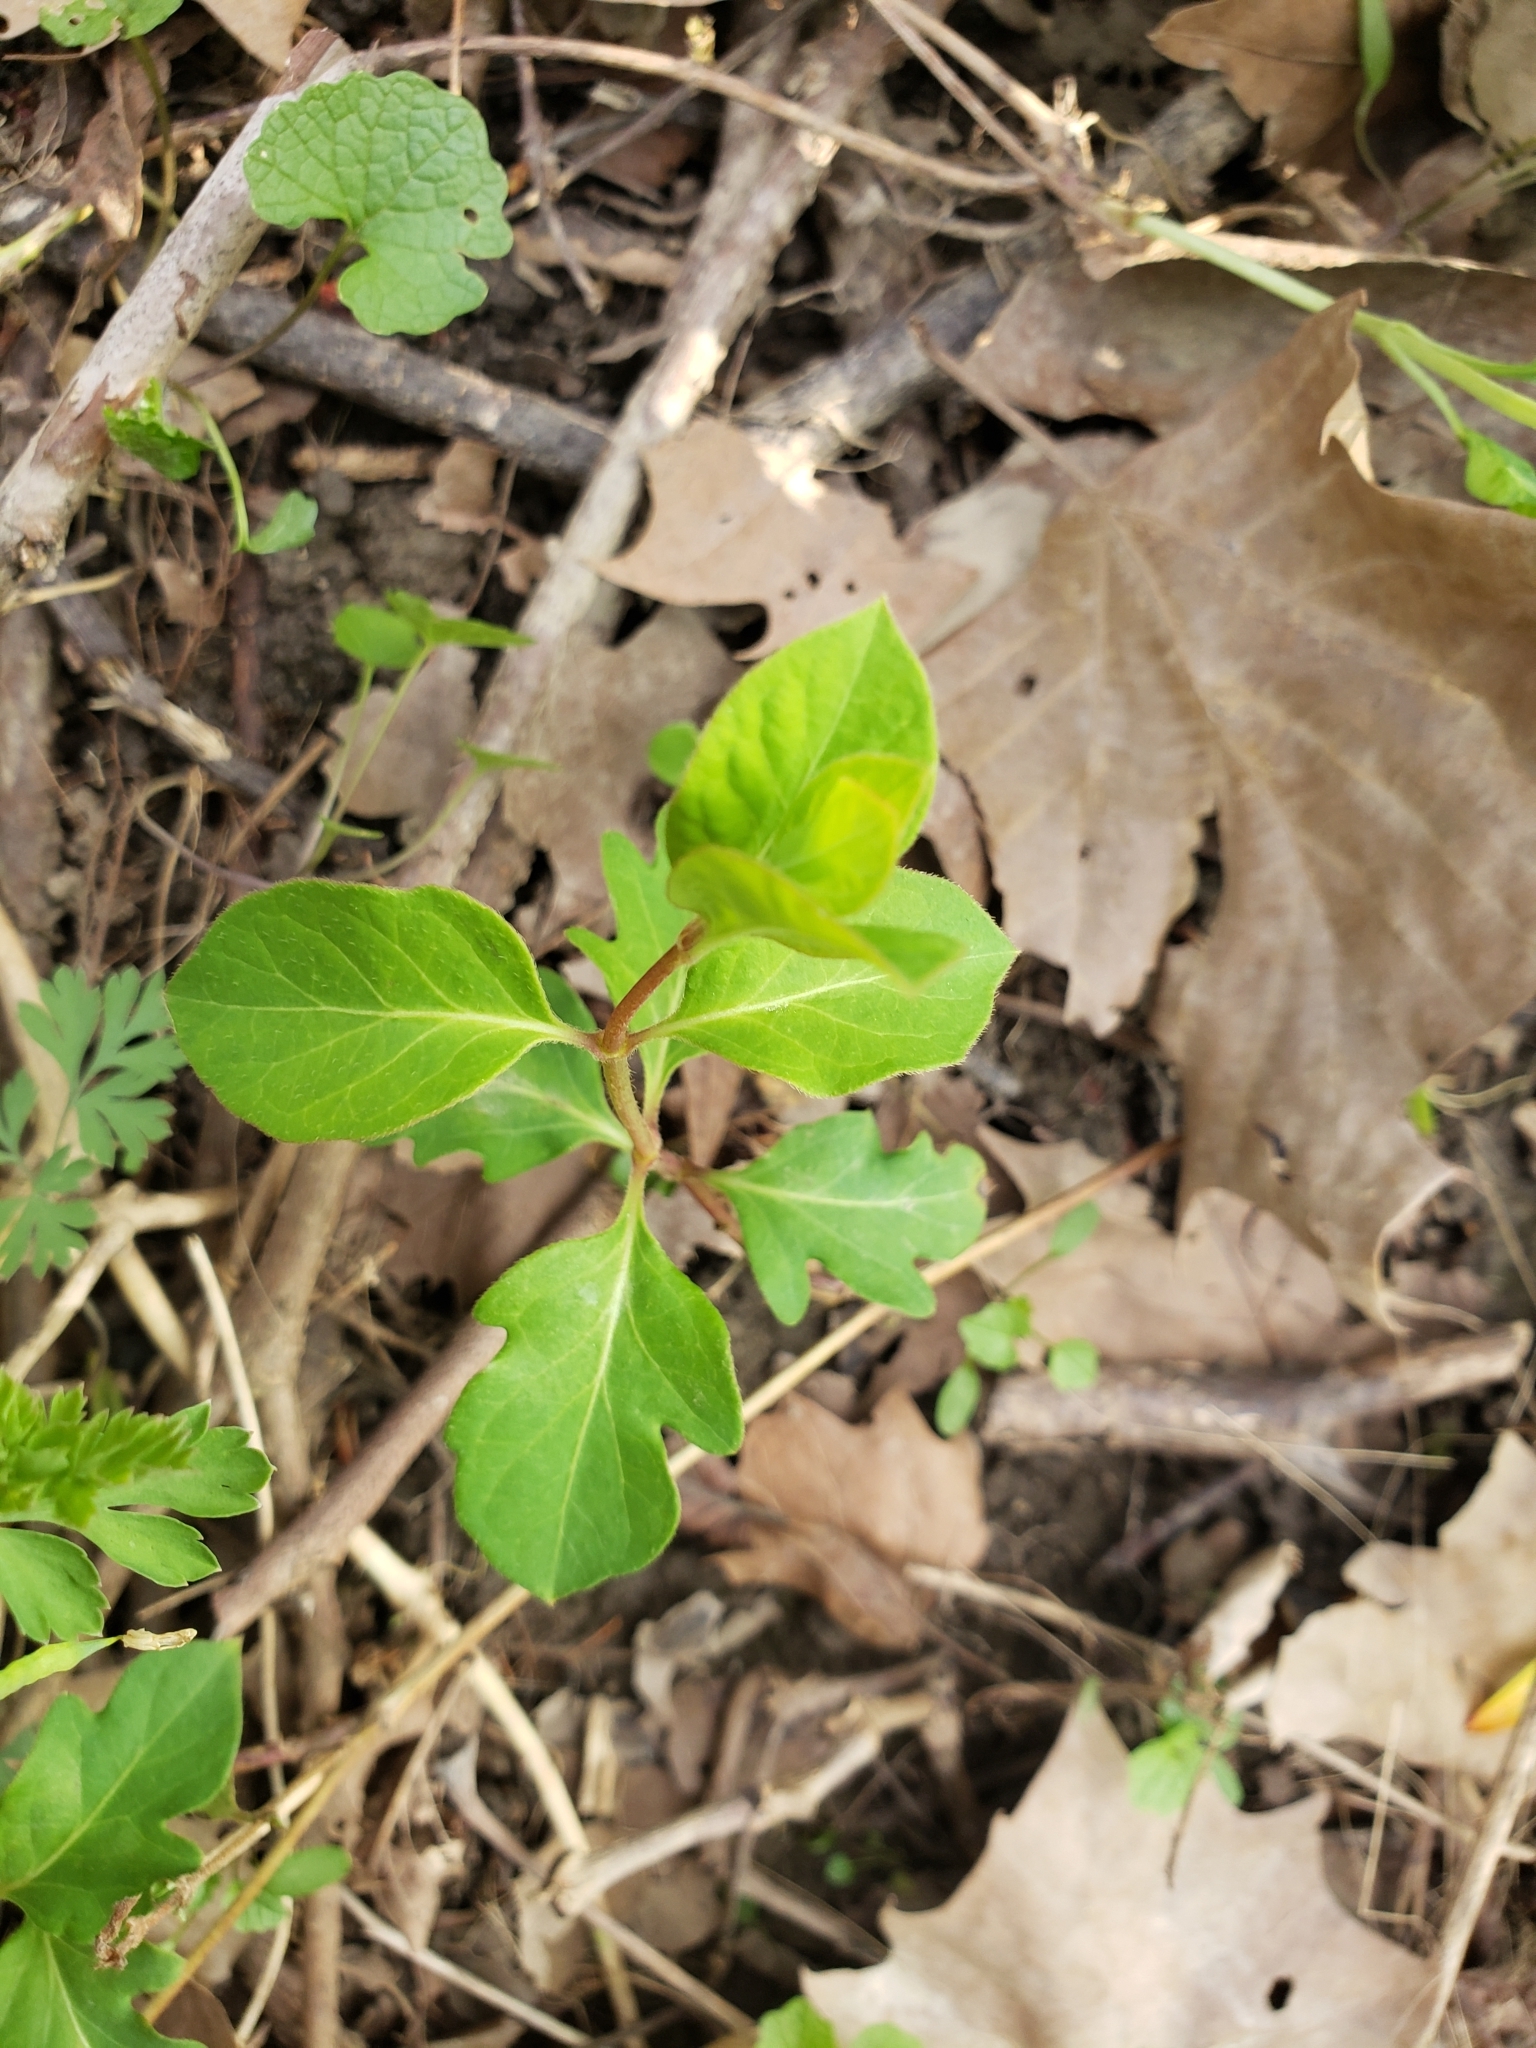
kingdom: Plantae
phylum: Tracheophyta
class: Magnoliopsida
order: Dipsacales
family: Caprifoliaceae
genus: Lonicera
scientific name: Lonicera japonica
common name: Japanese honeysuckle
